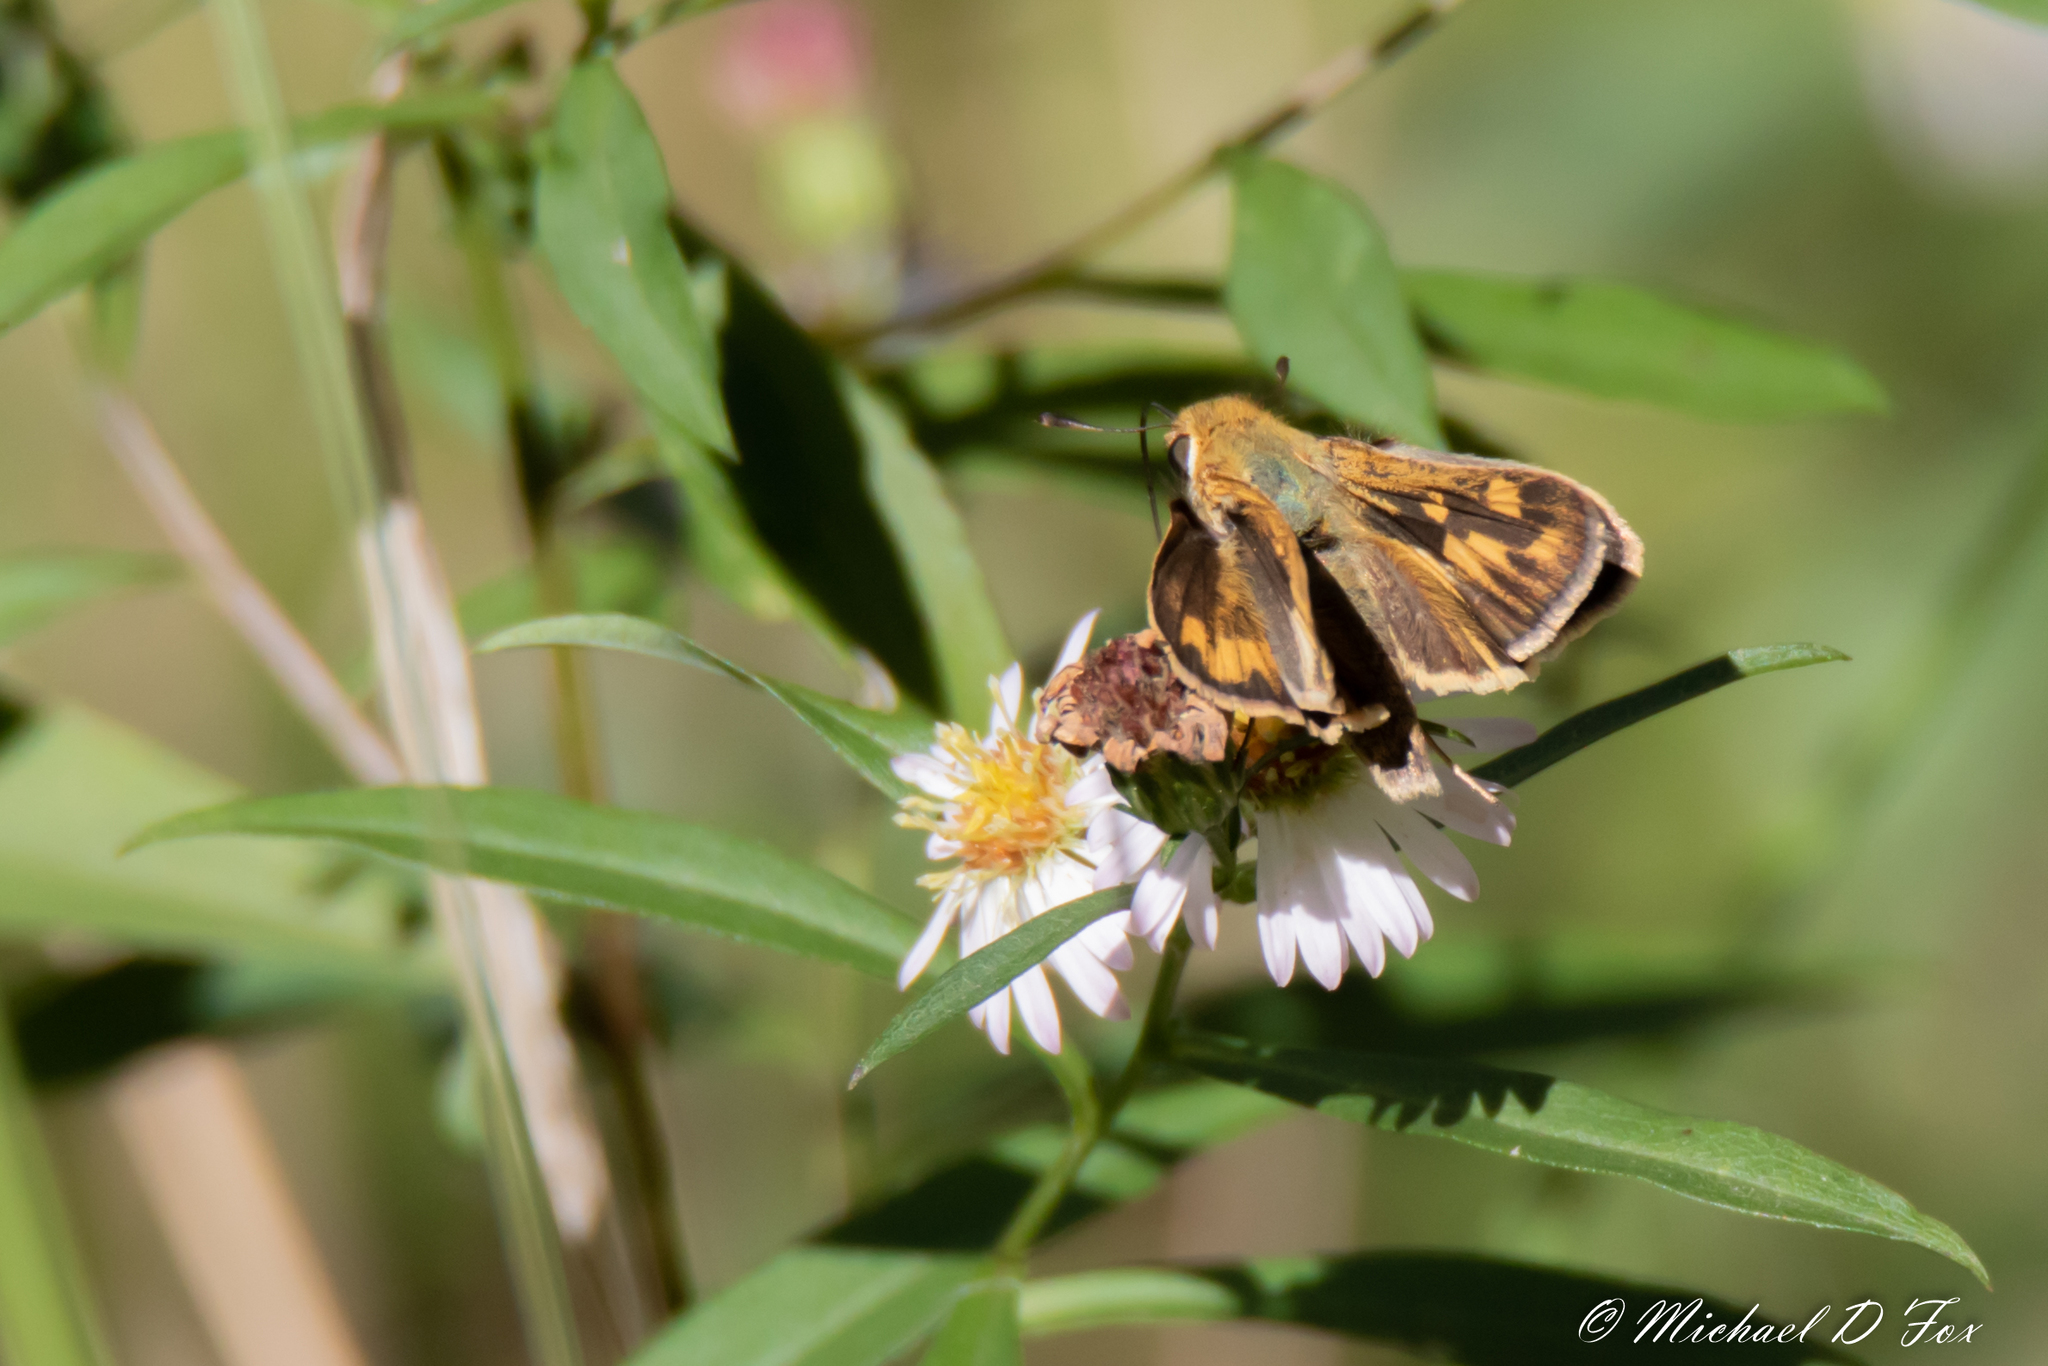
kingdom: Animalia
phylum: Arthropoda
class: Insecta
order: Lepidoptera
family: Hesperiidae
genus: Hylephila
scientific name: Hylephila phyleus
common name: Fiery skipper
